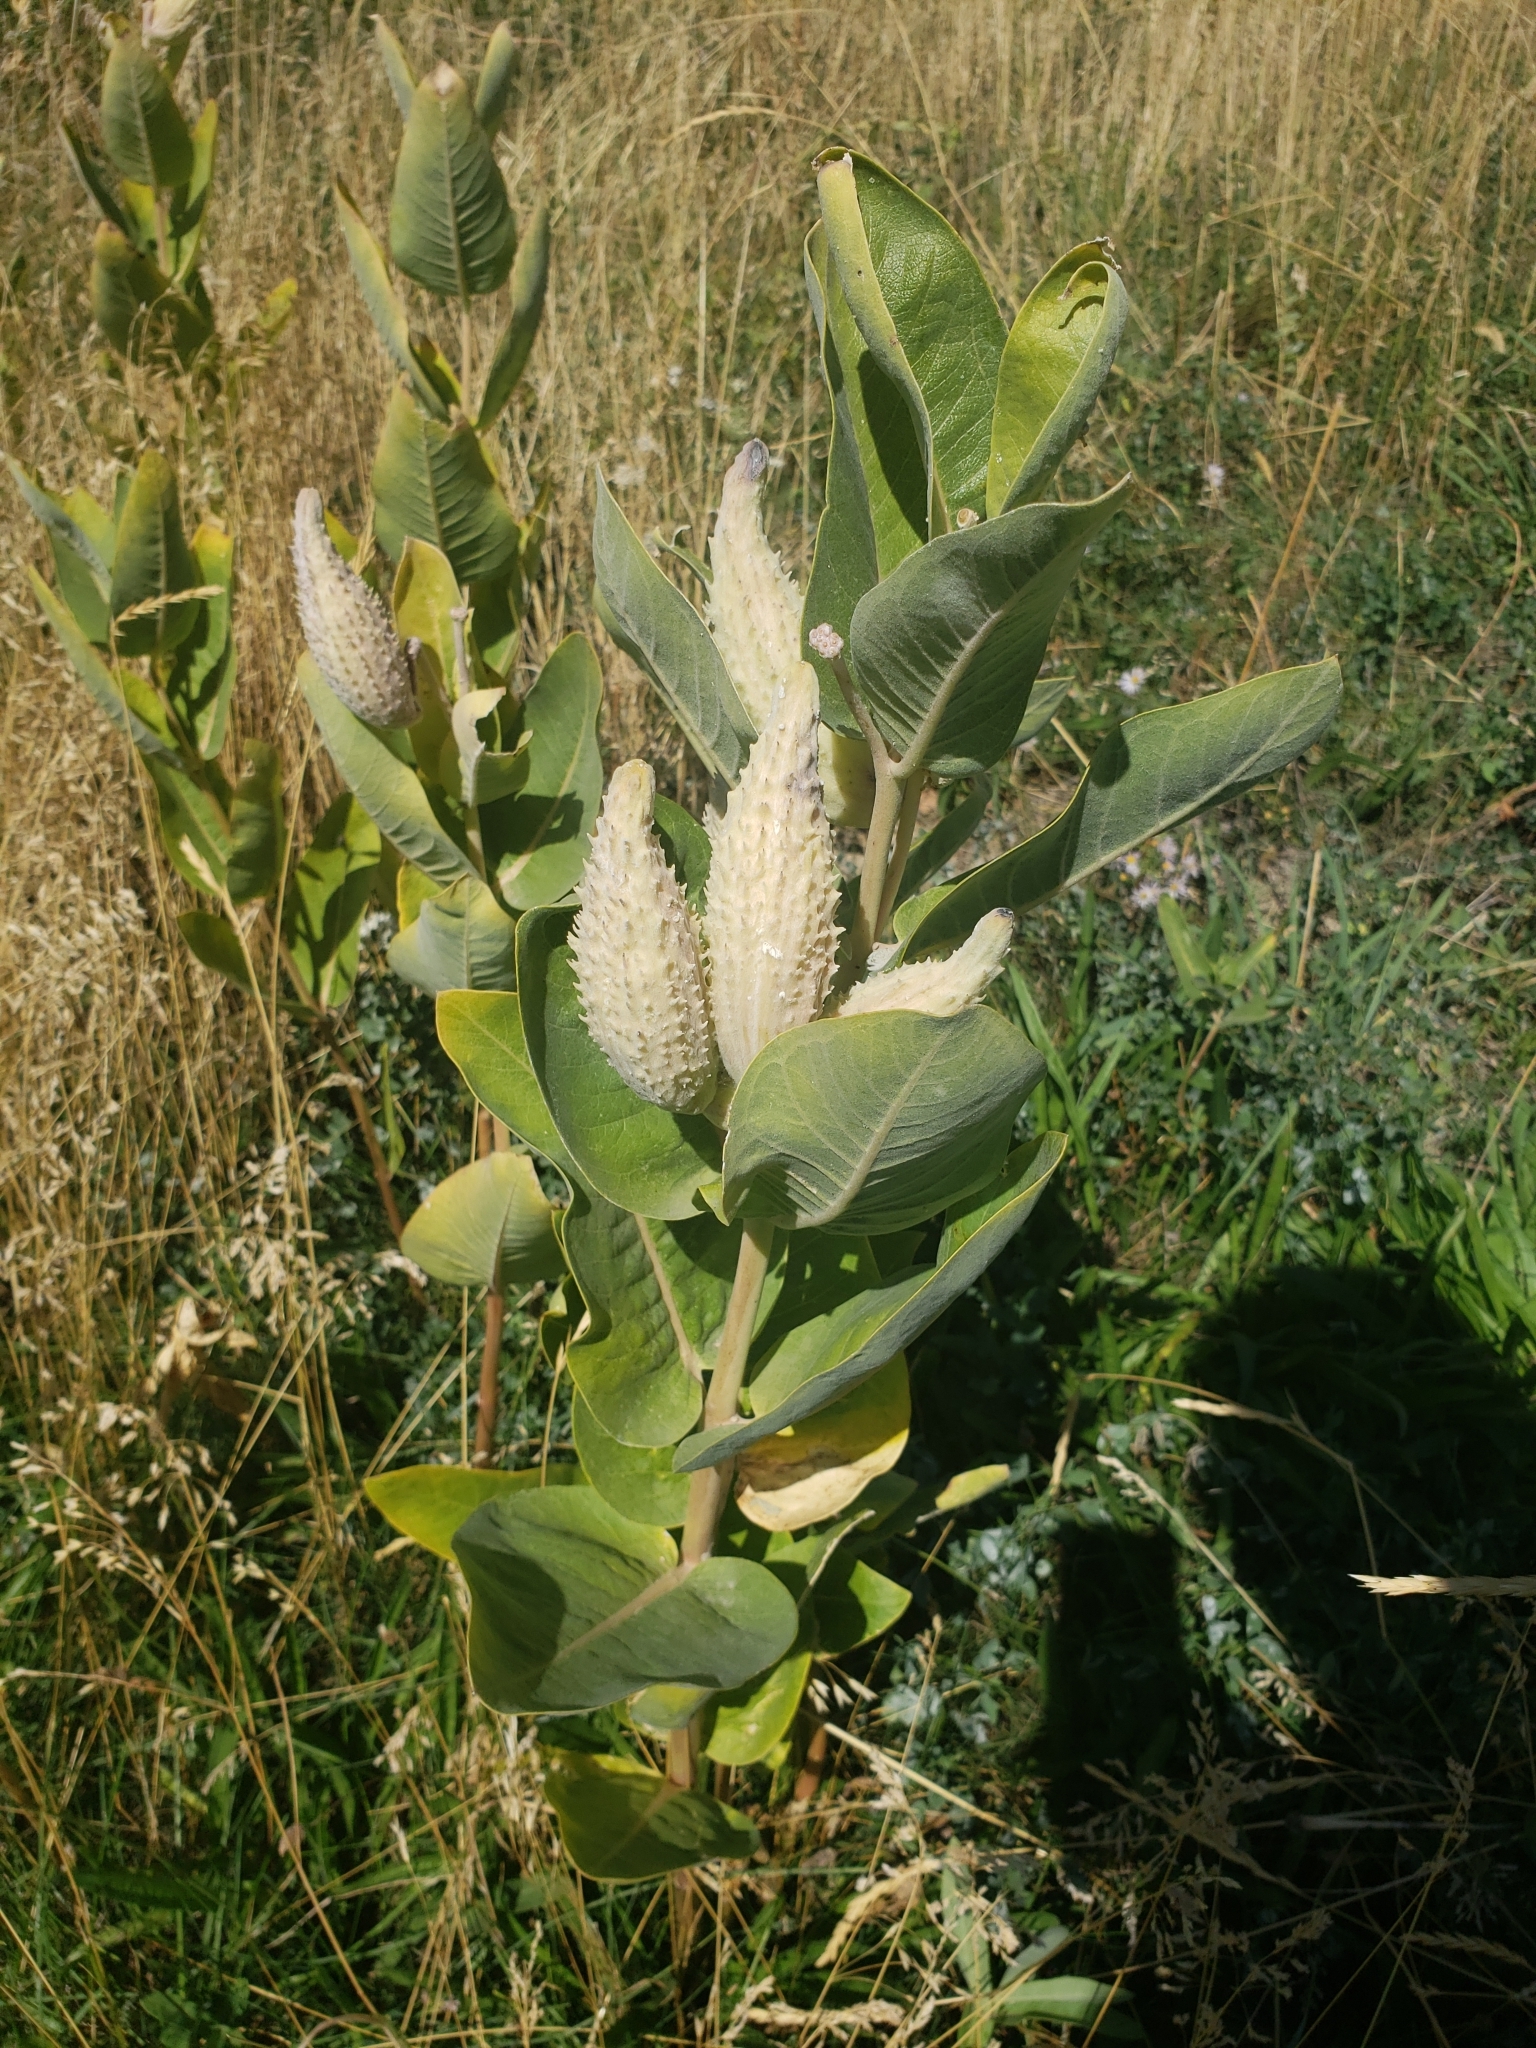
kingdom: Plantae
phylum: Tracheophyta
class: Magnoliopsida
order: Gentianales
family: Apocynaceae
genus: Asclepias
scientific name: Asclepias speciosa
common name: Showy milkweed
